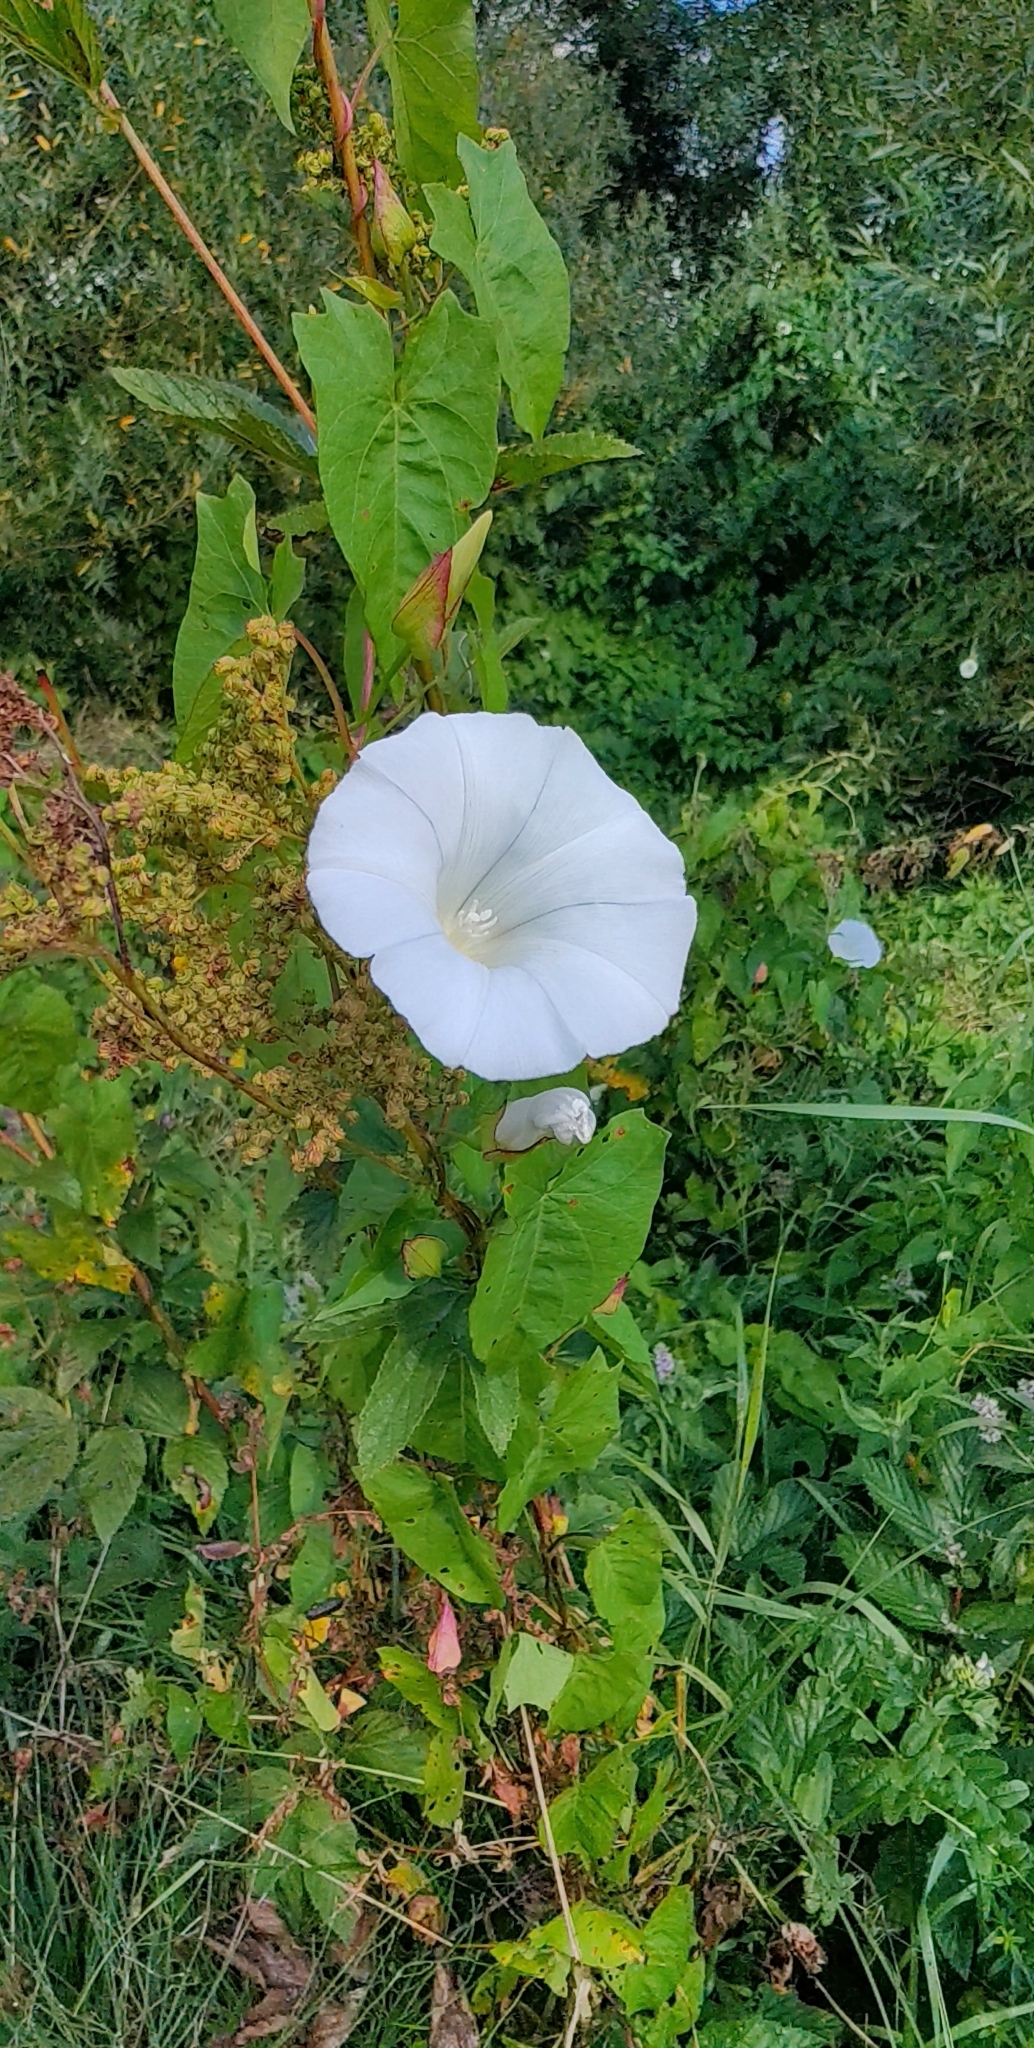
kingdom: Plantae
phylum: Tracheophyta
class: Magnoliopsida
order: Solanales
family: Convolvulaceae
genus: Calystegia
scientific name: Calystegia sepium
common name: Hedge bindweed
